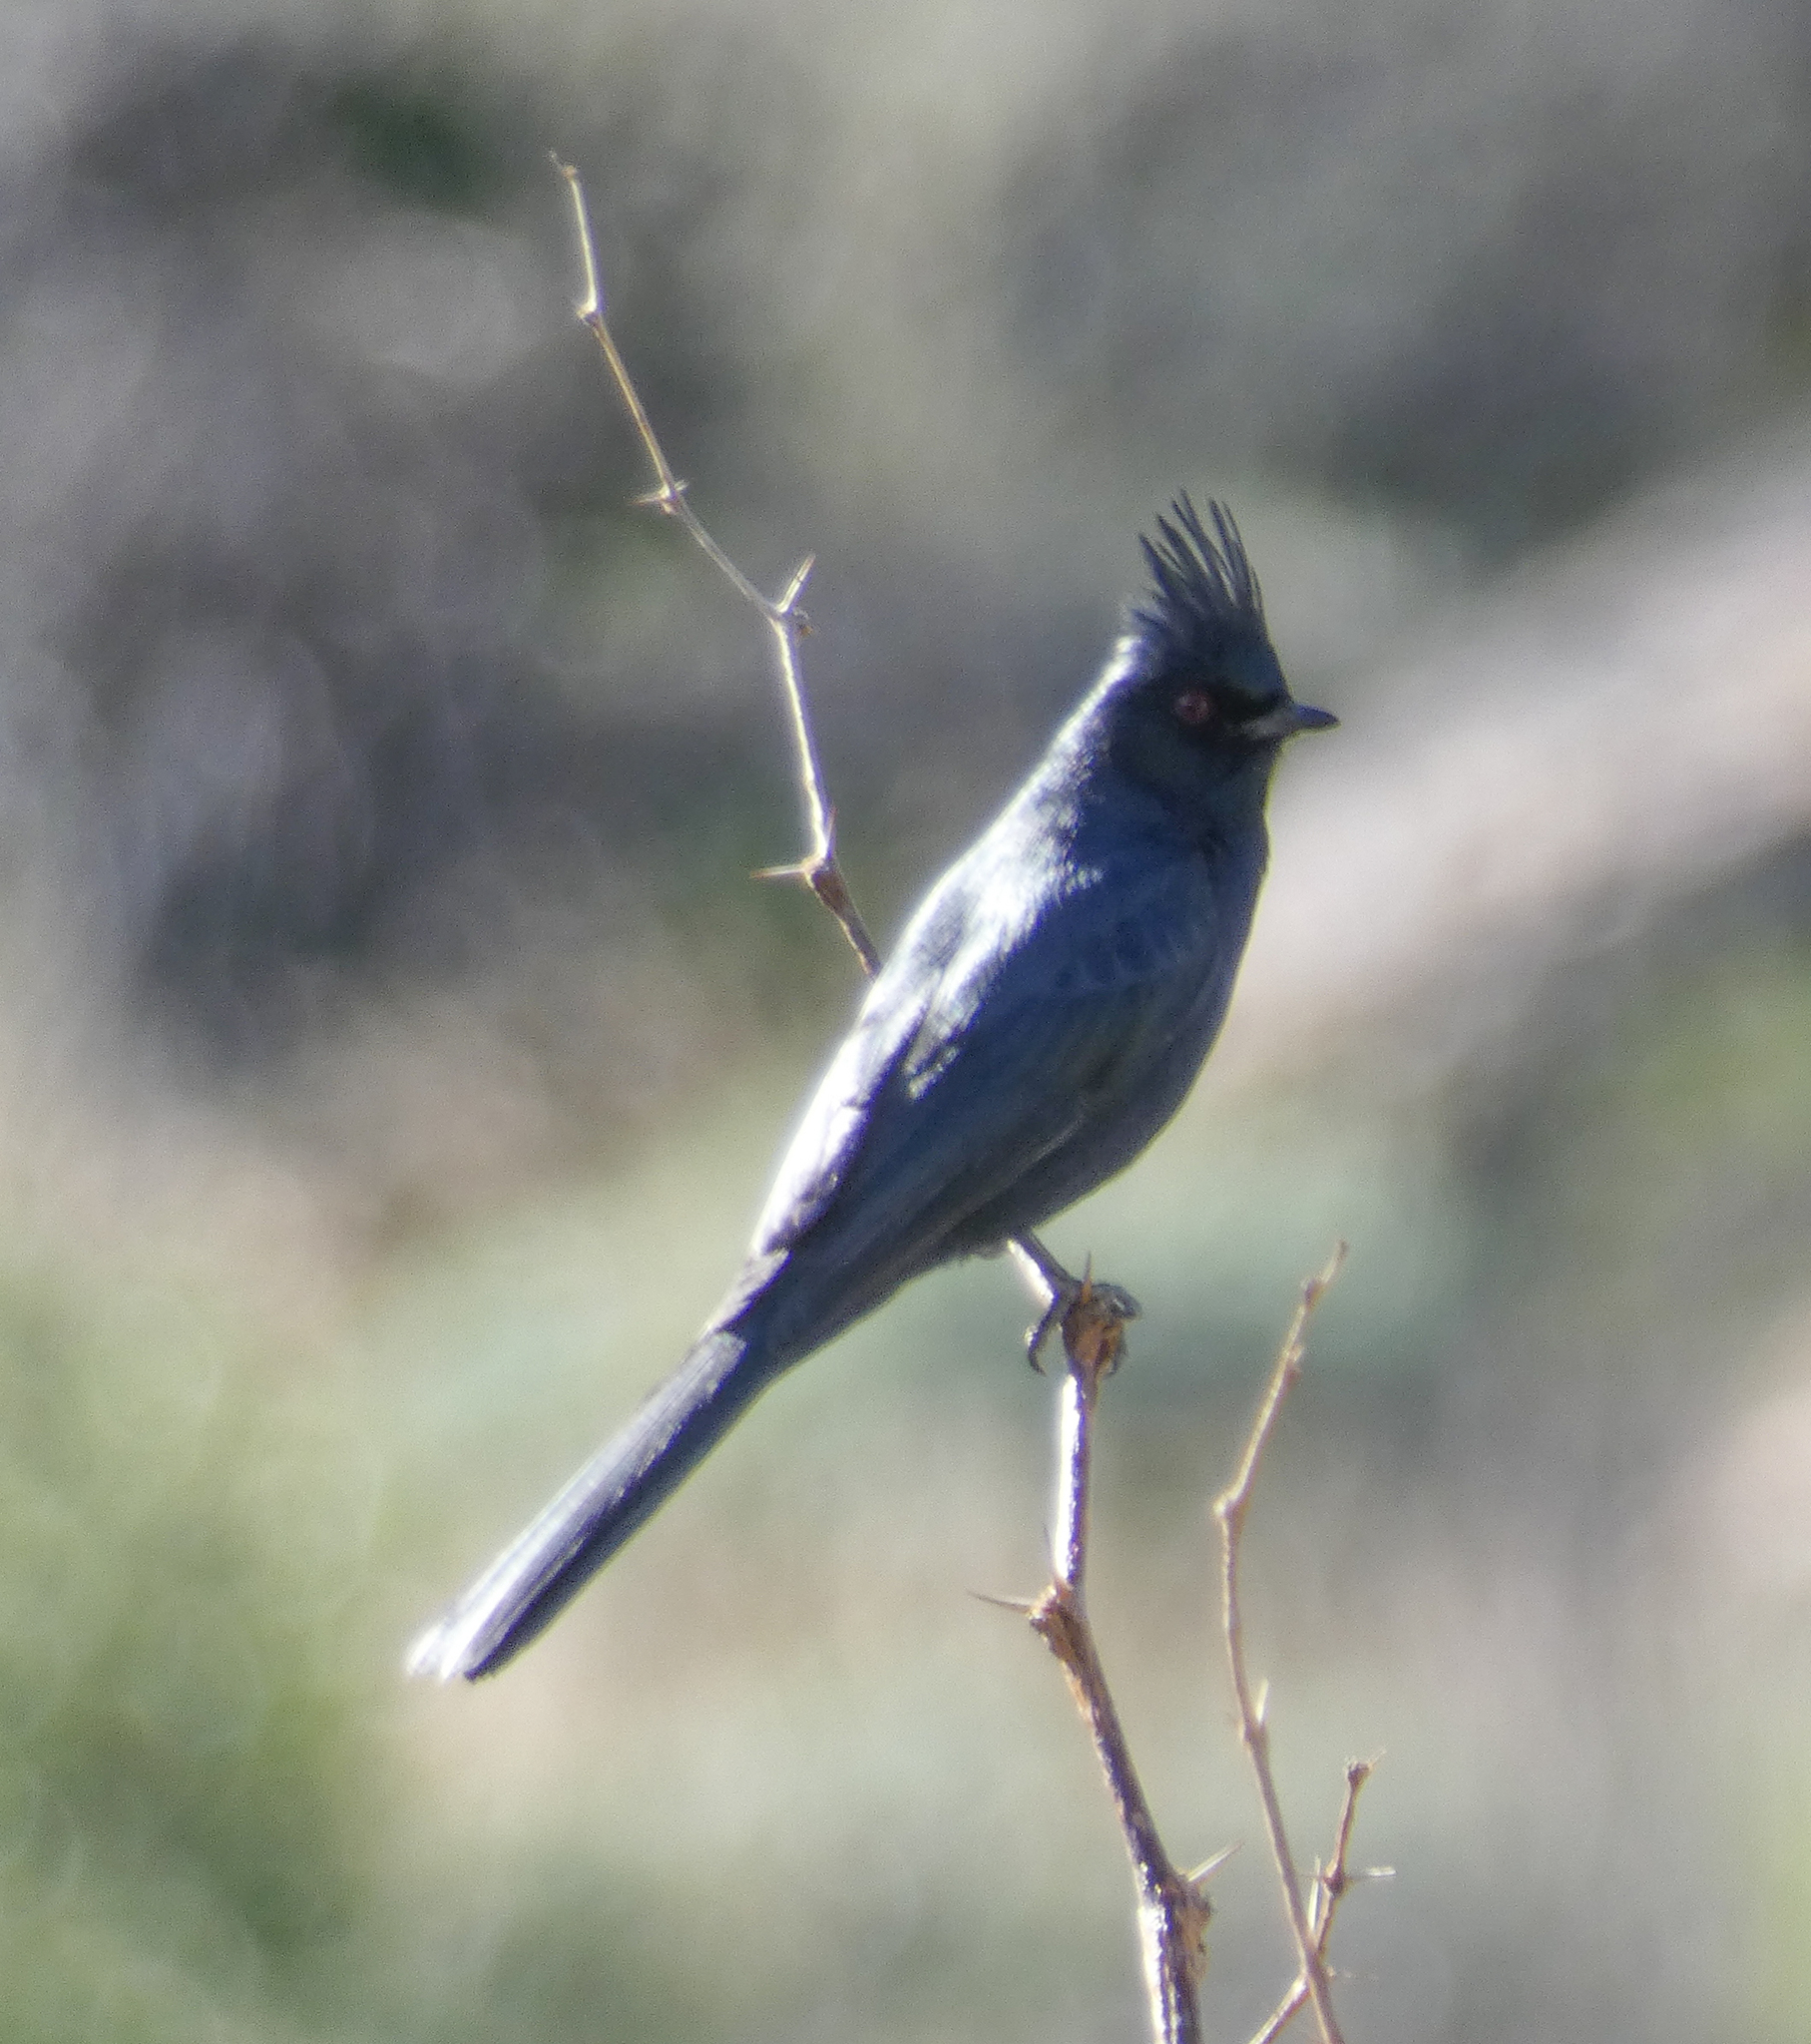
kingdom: Animalia
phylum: Chordata
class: Aves
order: Passeriformes
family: Ptilogonatidae
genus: Phainopepla
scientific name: Phainopepla nitens
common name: Phainopepla
